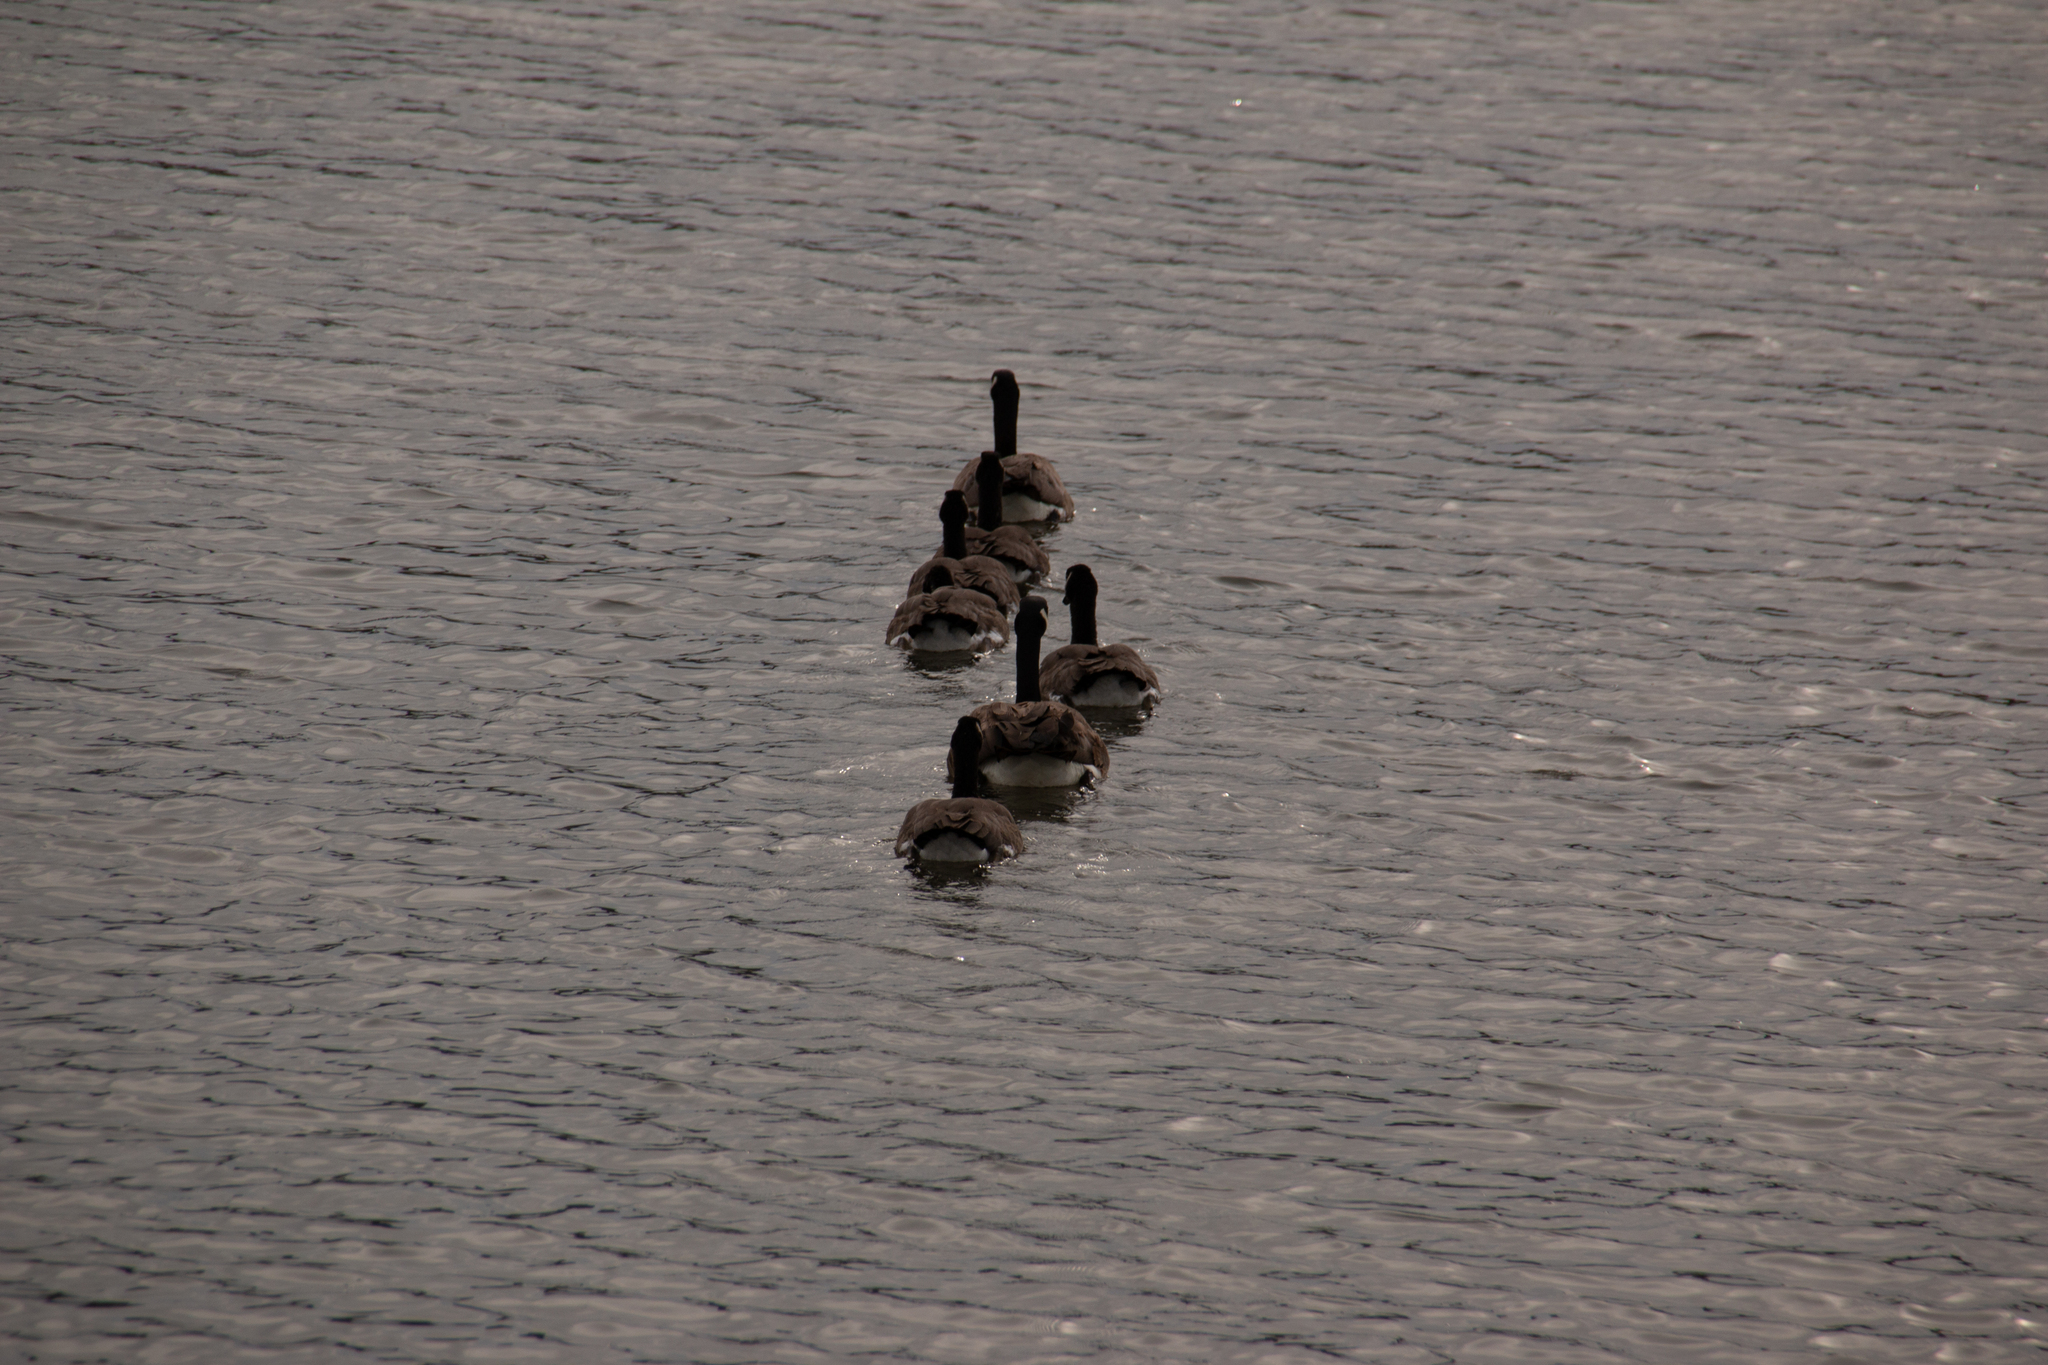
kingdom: Animalia
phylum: Chordata
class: Aves
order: Anseriformes
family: Anatidae
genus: Branta
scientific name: Branta canadensis
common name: Canada goose
